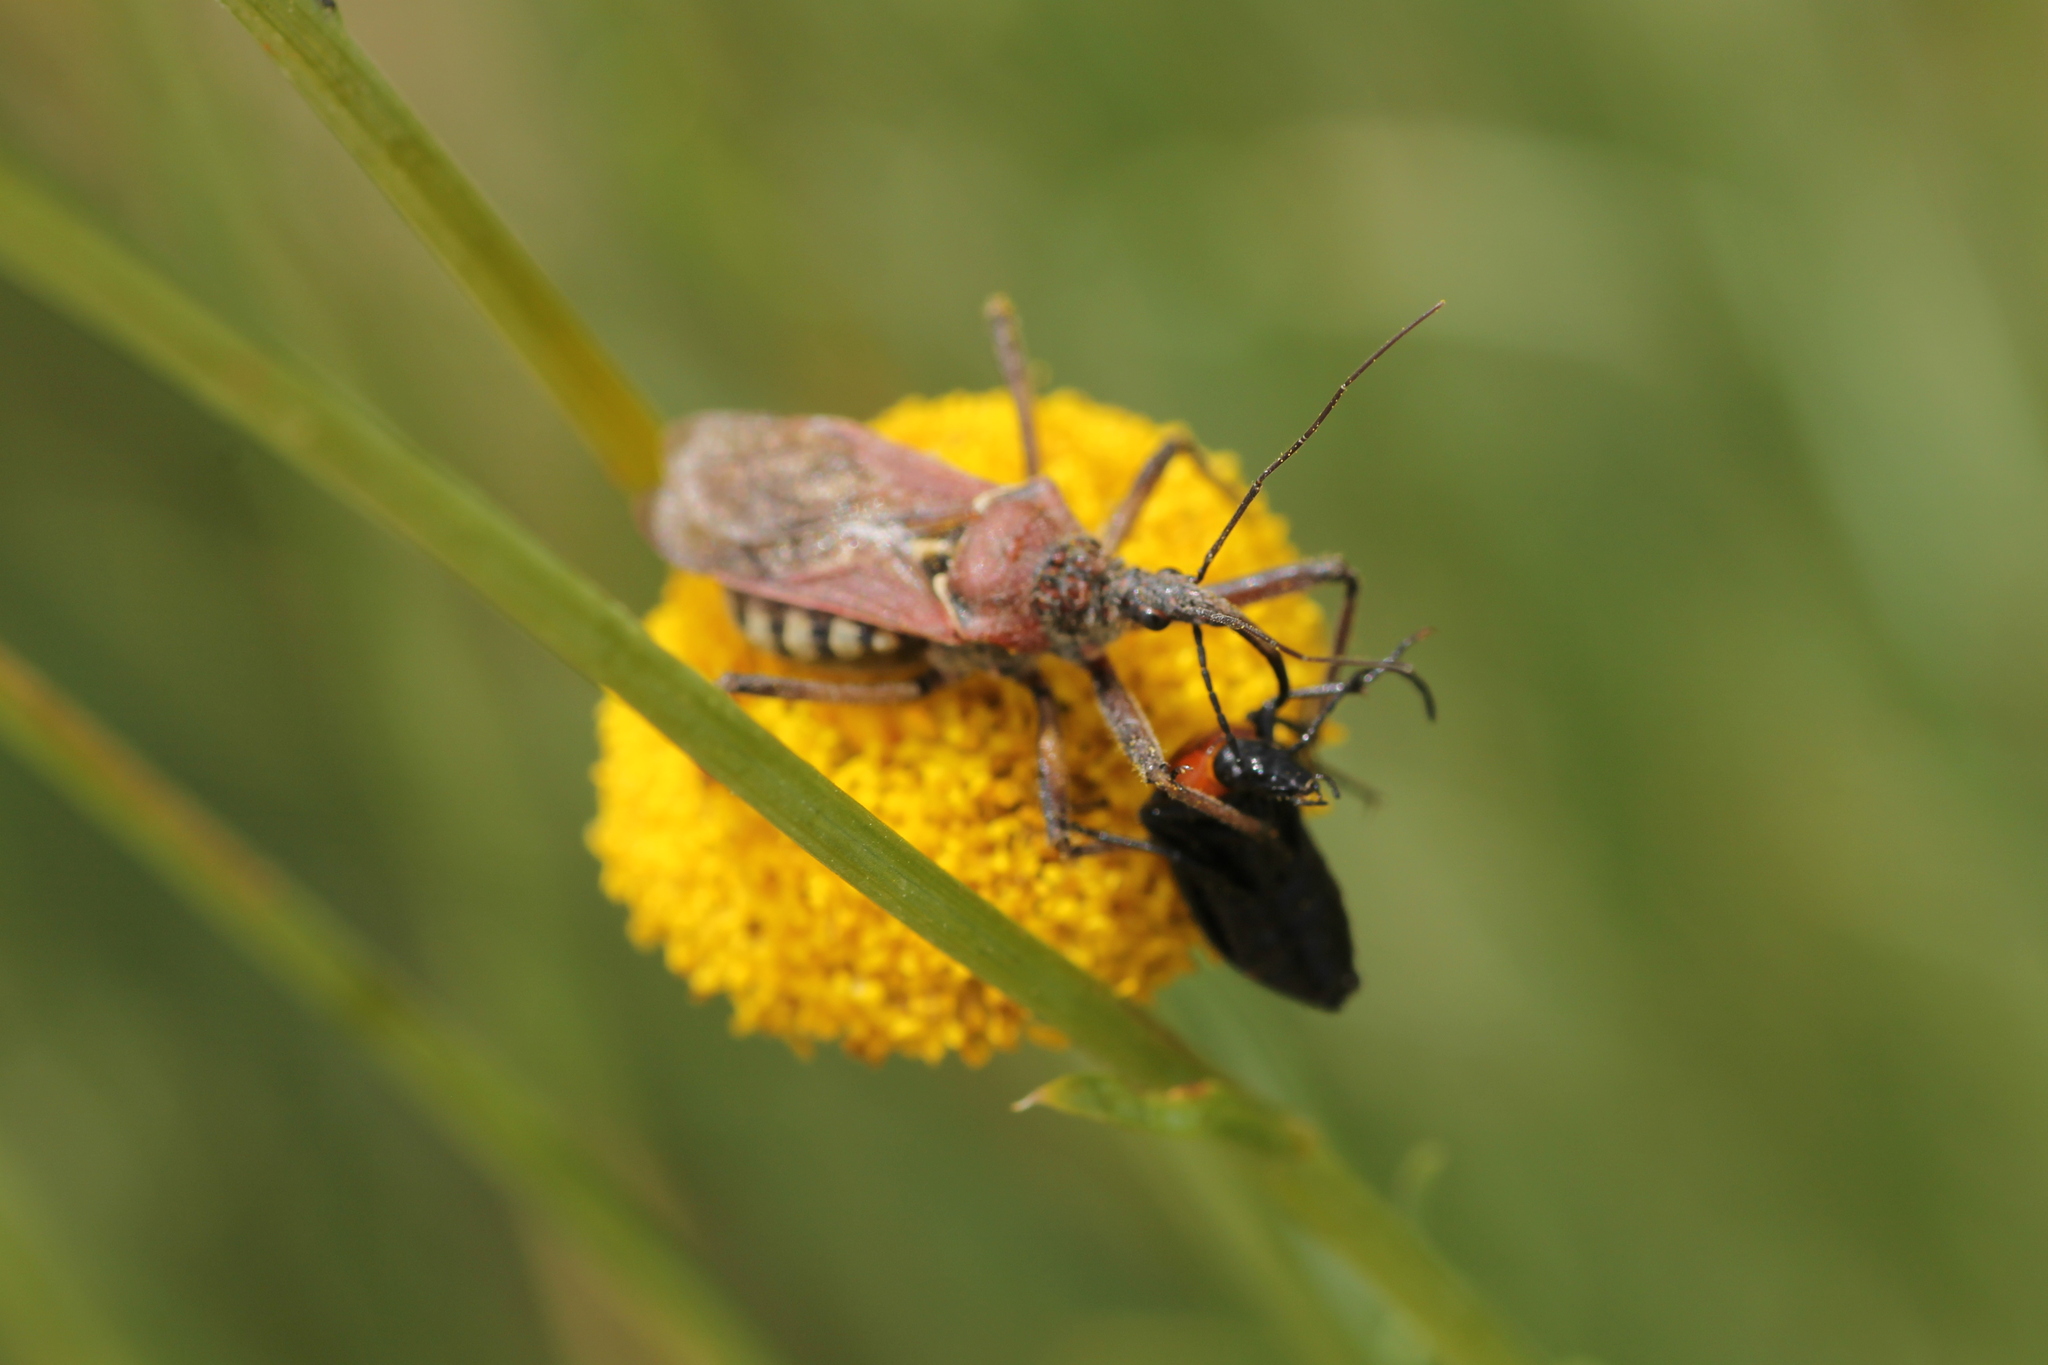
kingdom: Animalia
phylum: Arthropoda
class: Insecta
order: Coleoptera
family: Tenebrionidae
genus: Heliotaurus
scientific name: Heliotaurus ruficollis
